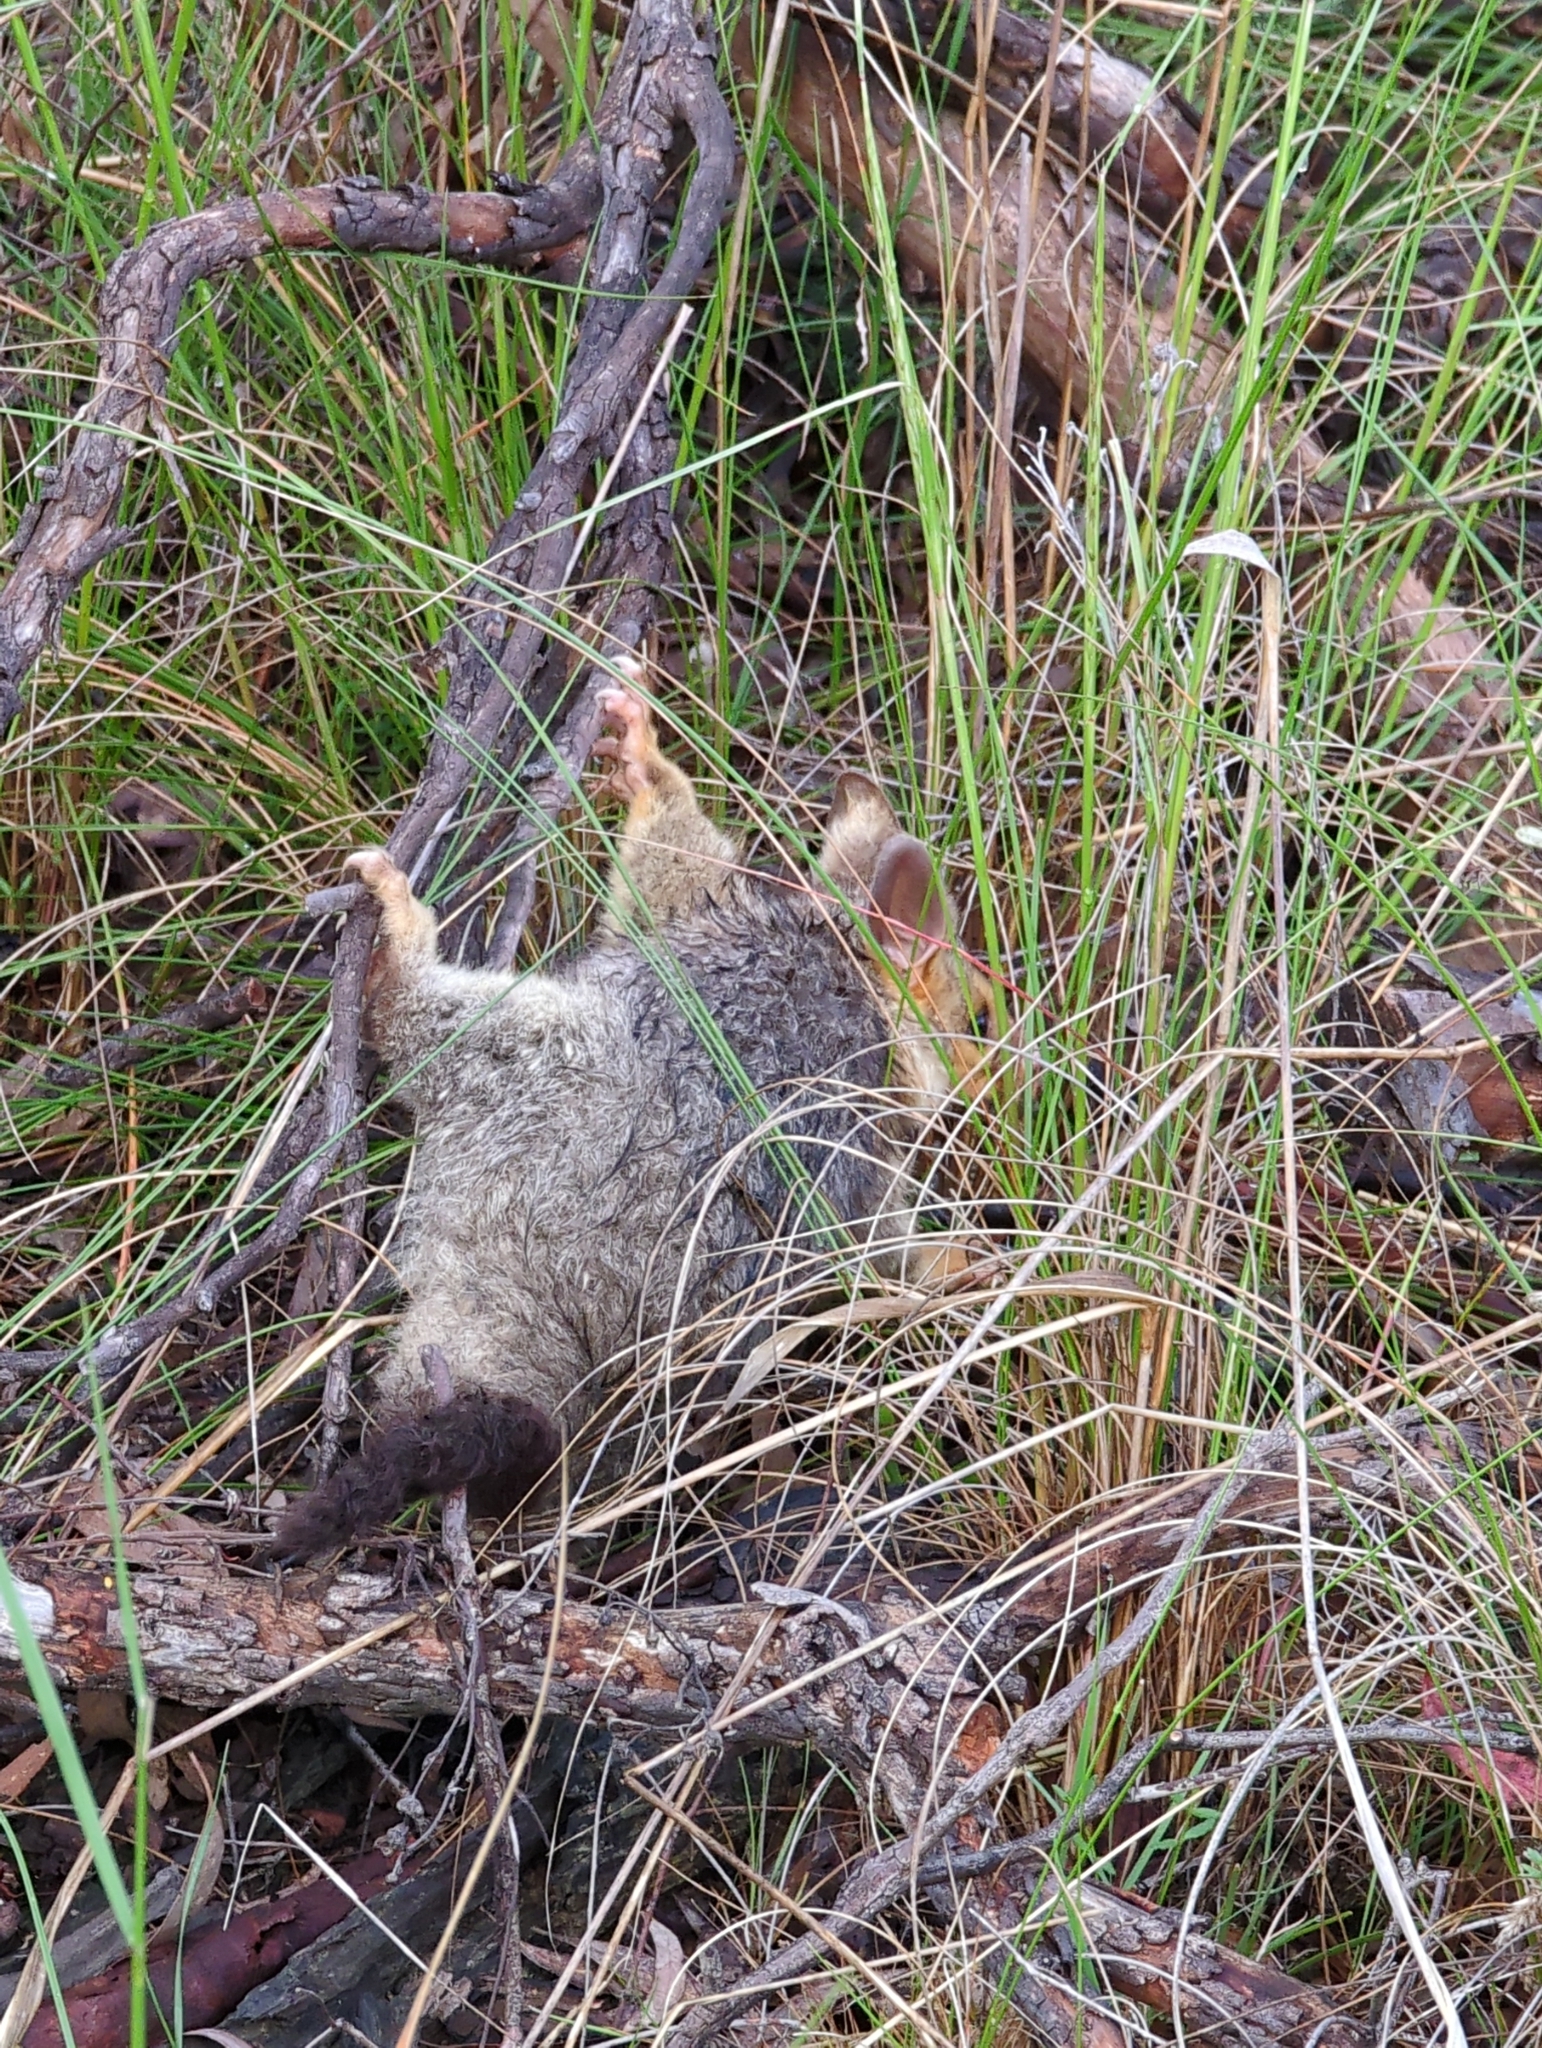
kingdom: Animalia
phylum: Chordata
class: Mammalia
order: Diprotodontia
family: Phalangeridae
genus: Trichosurus
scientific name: Trichosurus vulpecula
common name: Common brushtail
